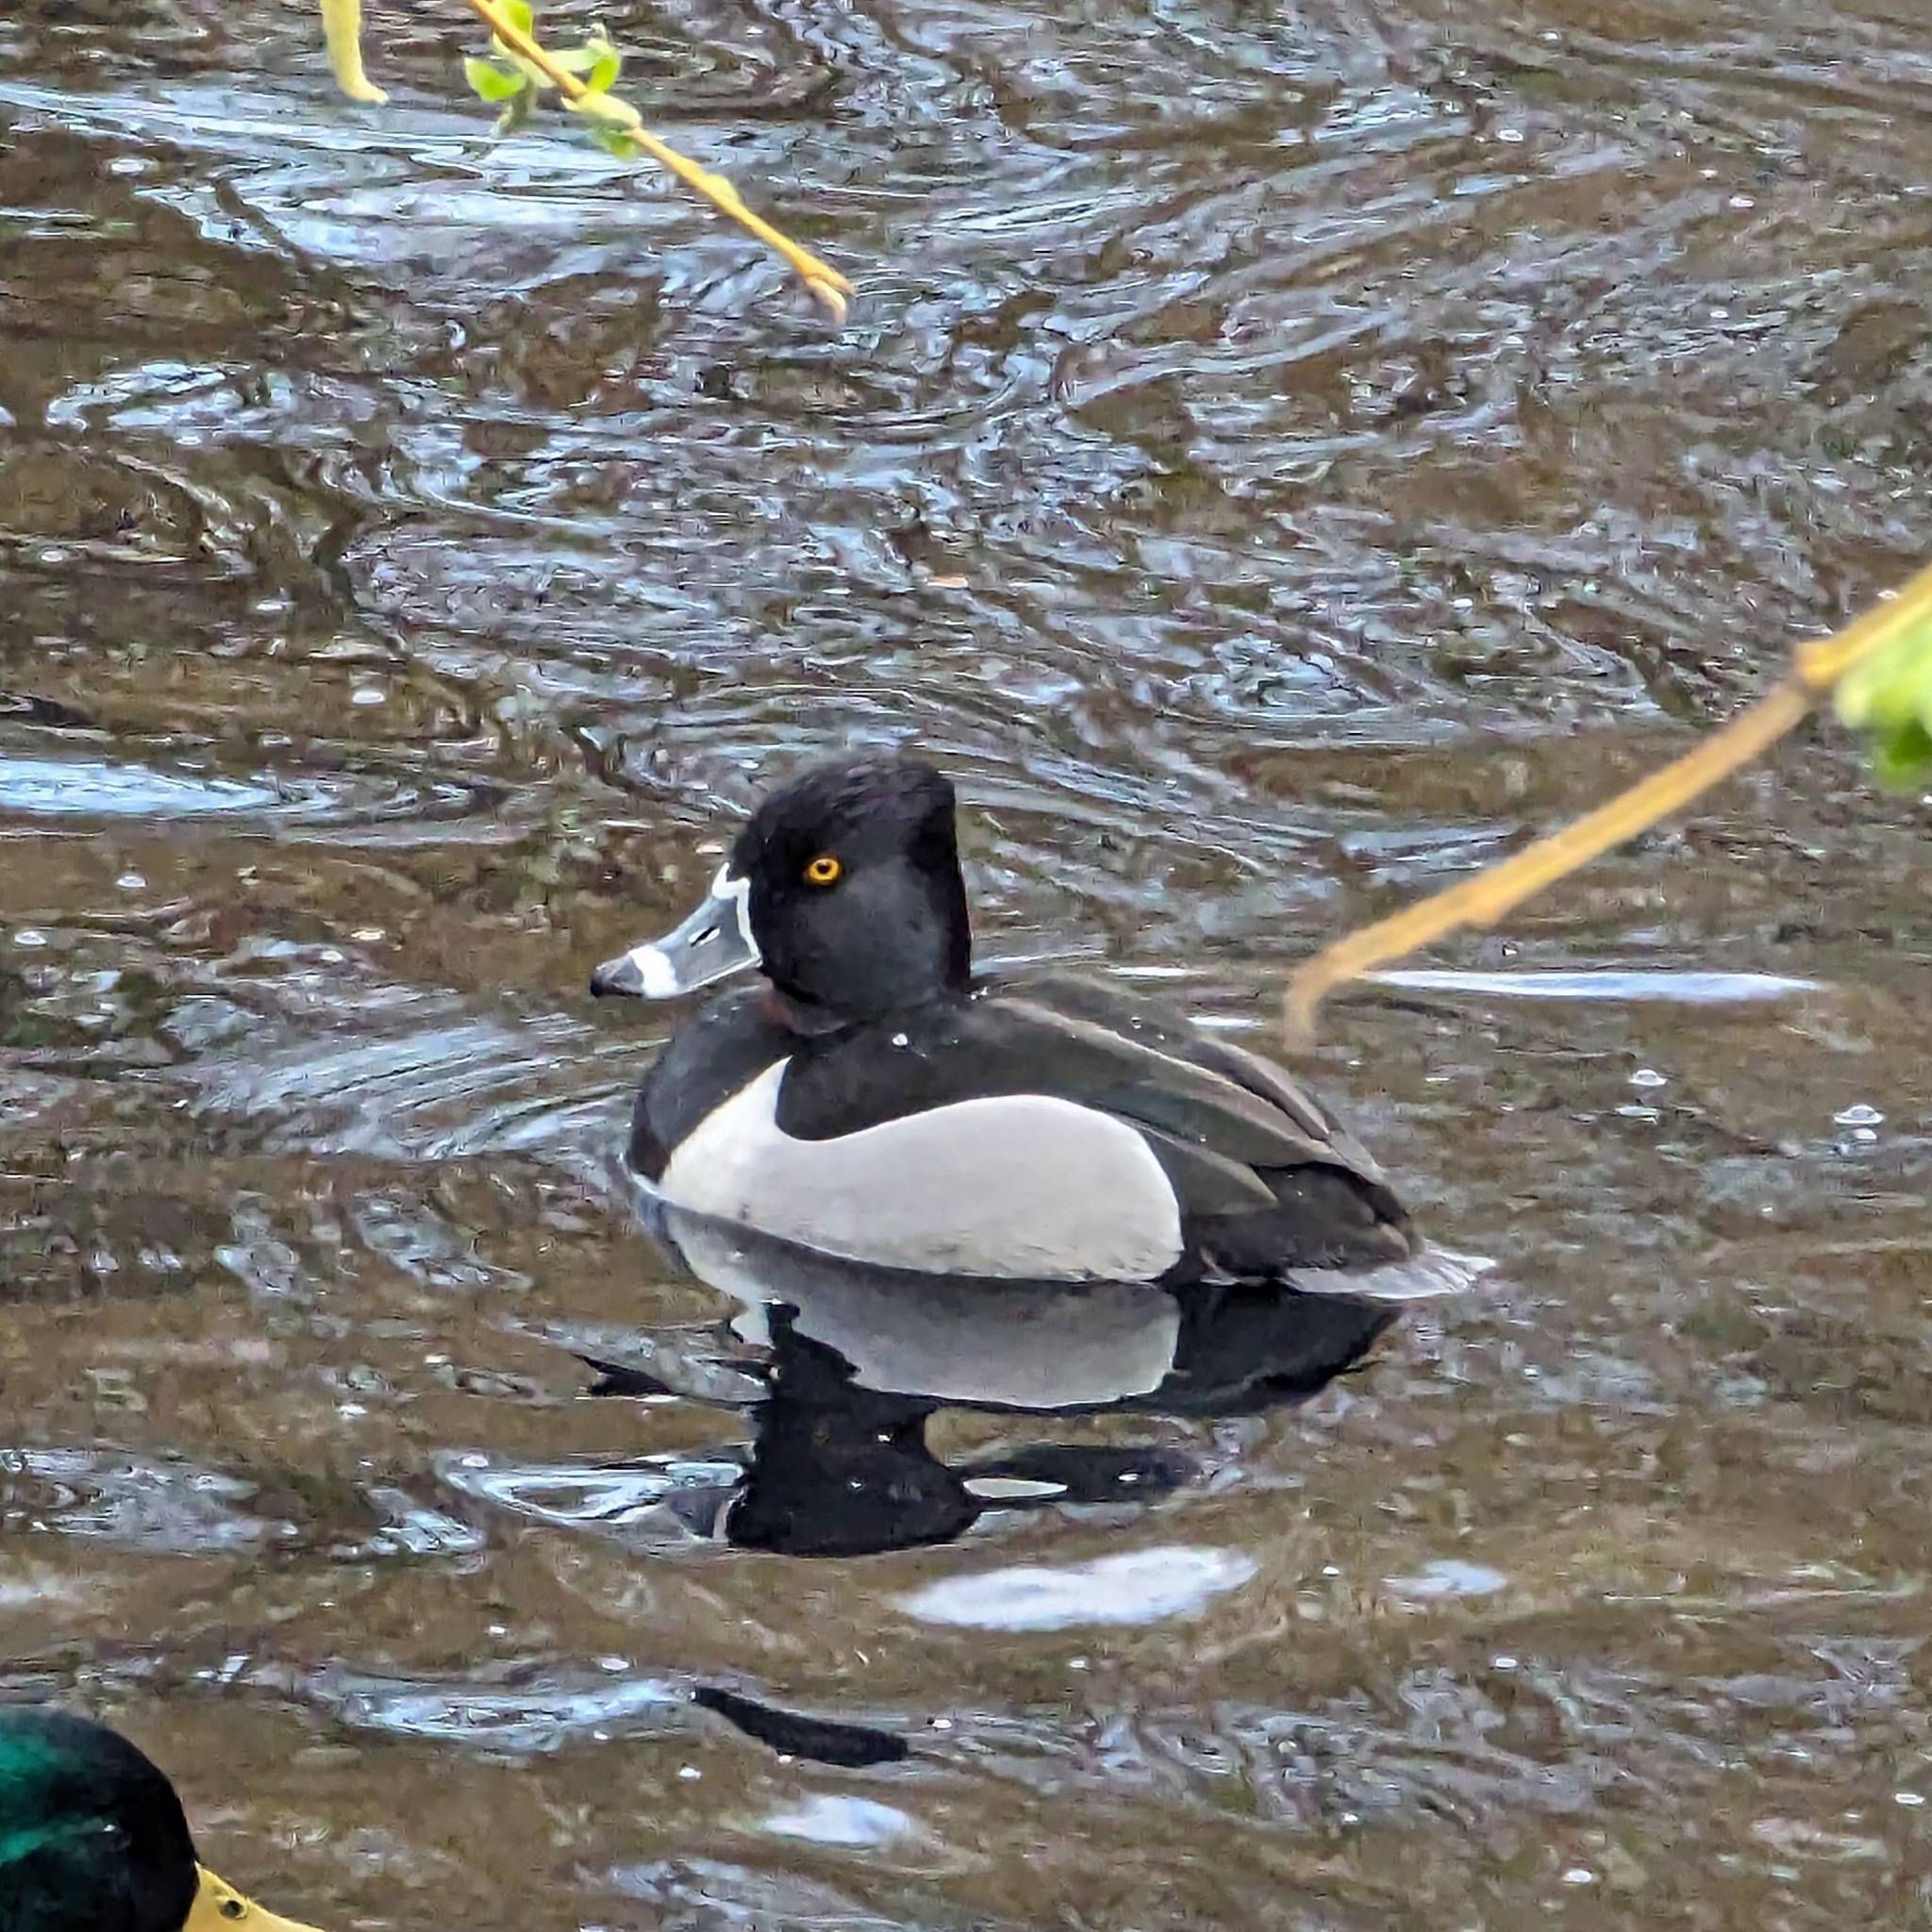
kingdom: Animalia
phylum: Chordata
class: Aves
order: Anseriformes
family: Anatidae
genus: Aythya
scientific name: Aythya collaris
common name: Ring-necked duck
